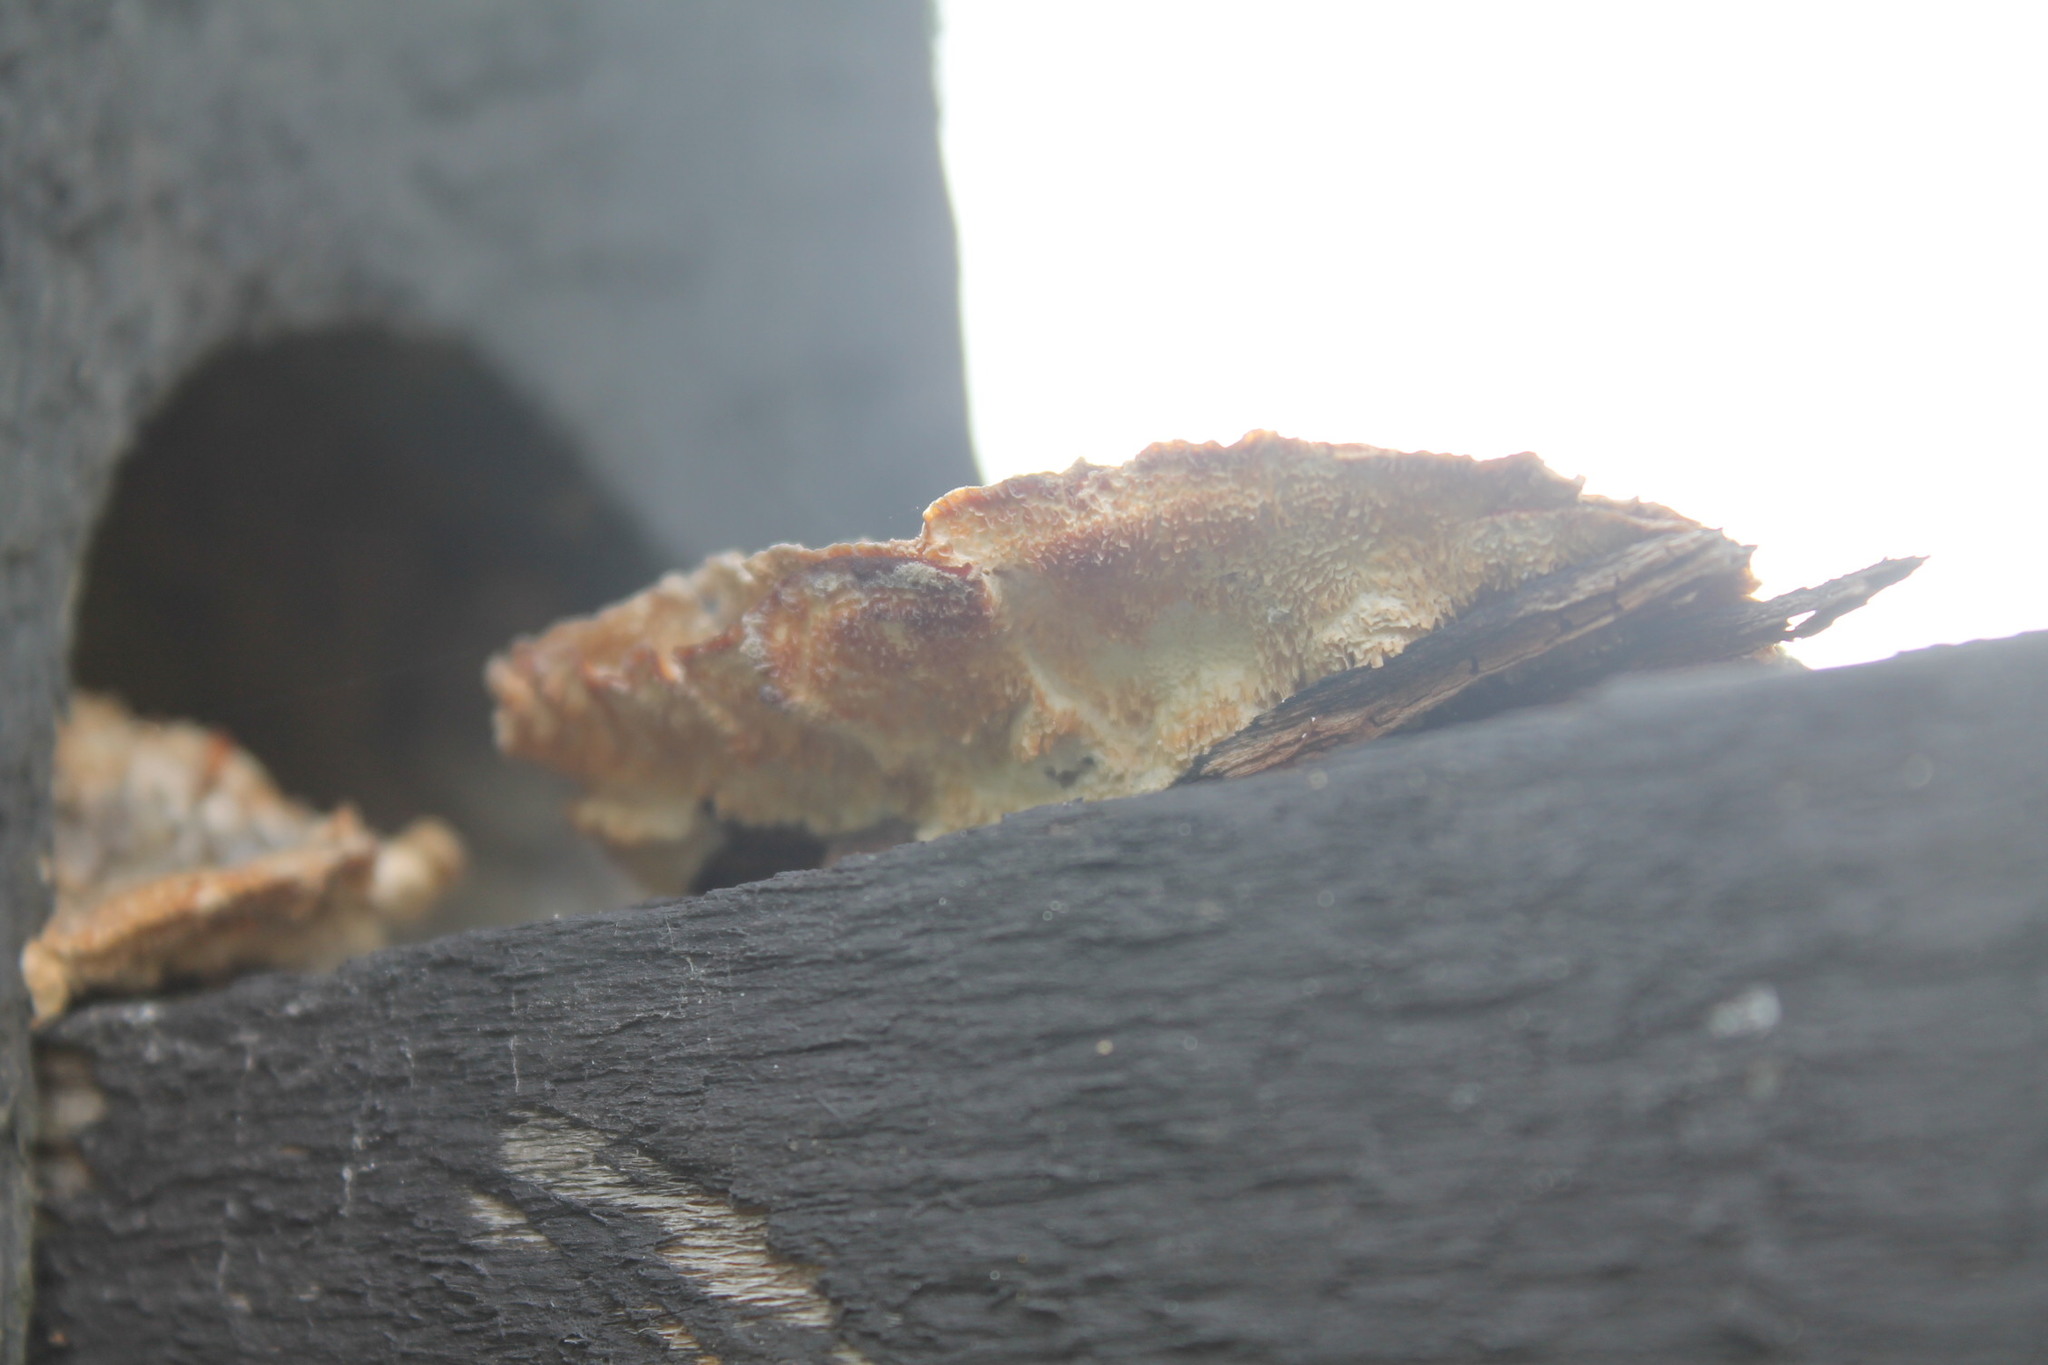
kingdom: Fungi
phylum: Basidiomycota
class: Agaricomycetes
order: Polyporales
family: Polyporaceae
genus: Trametes
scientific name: Trametes versicolor
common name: Turkeytail
